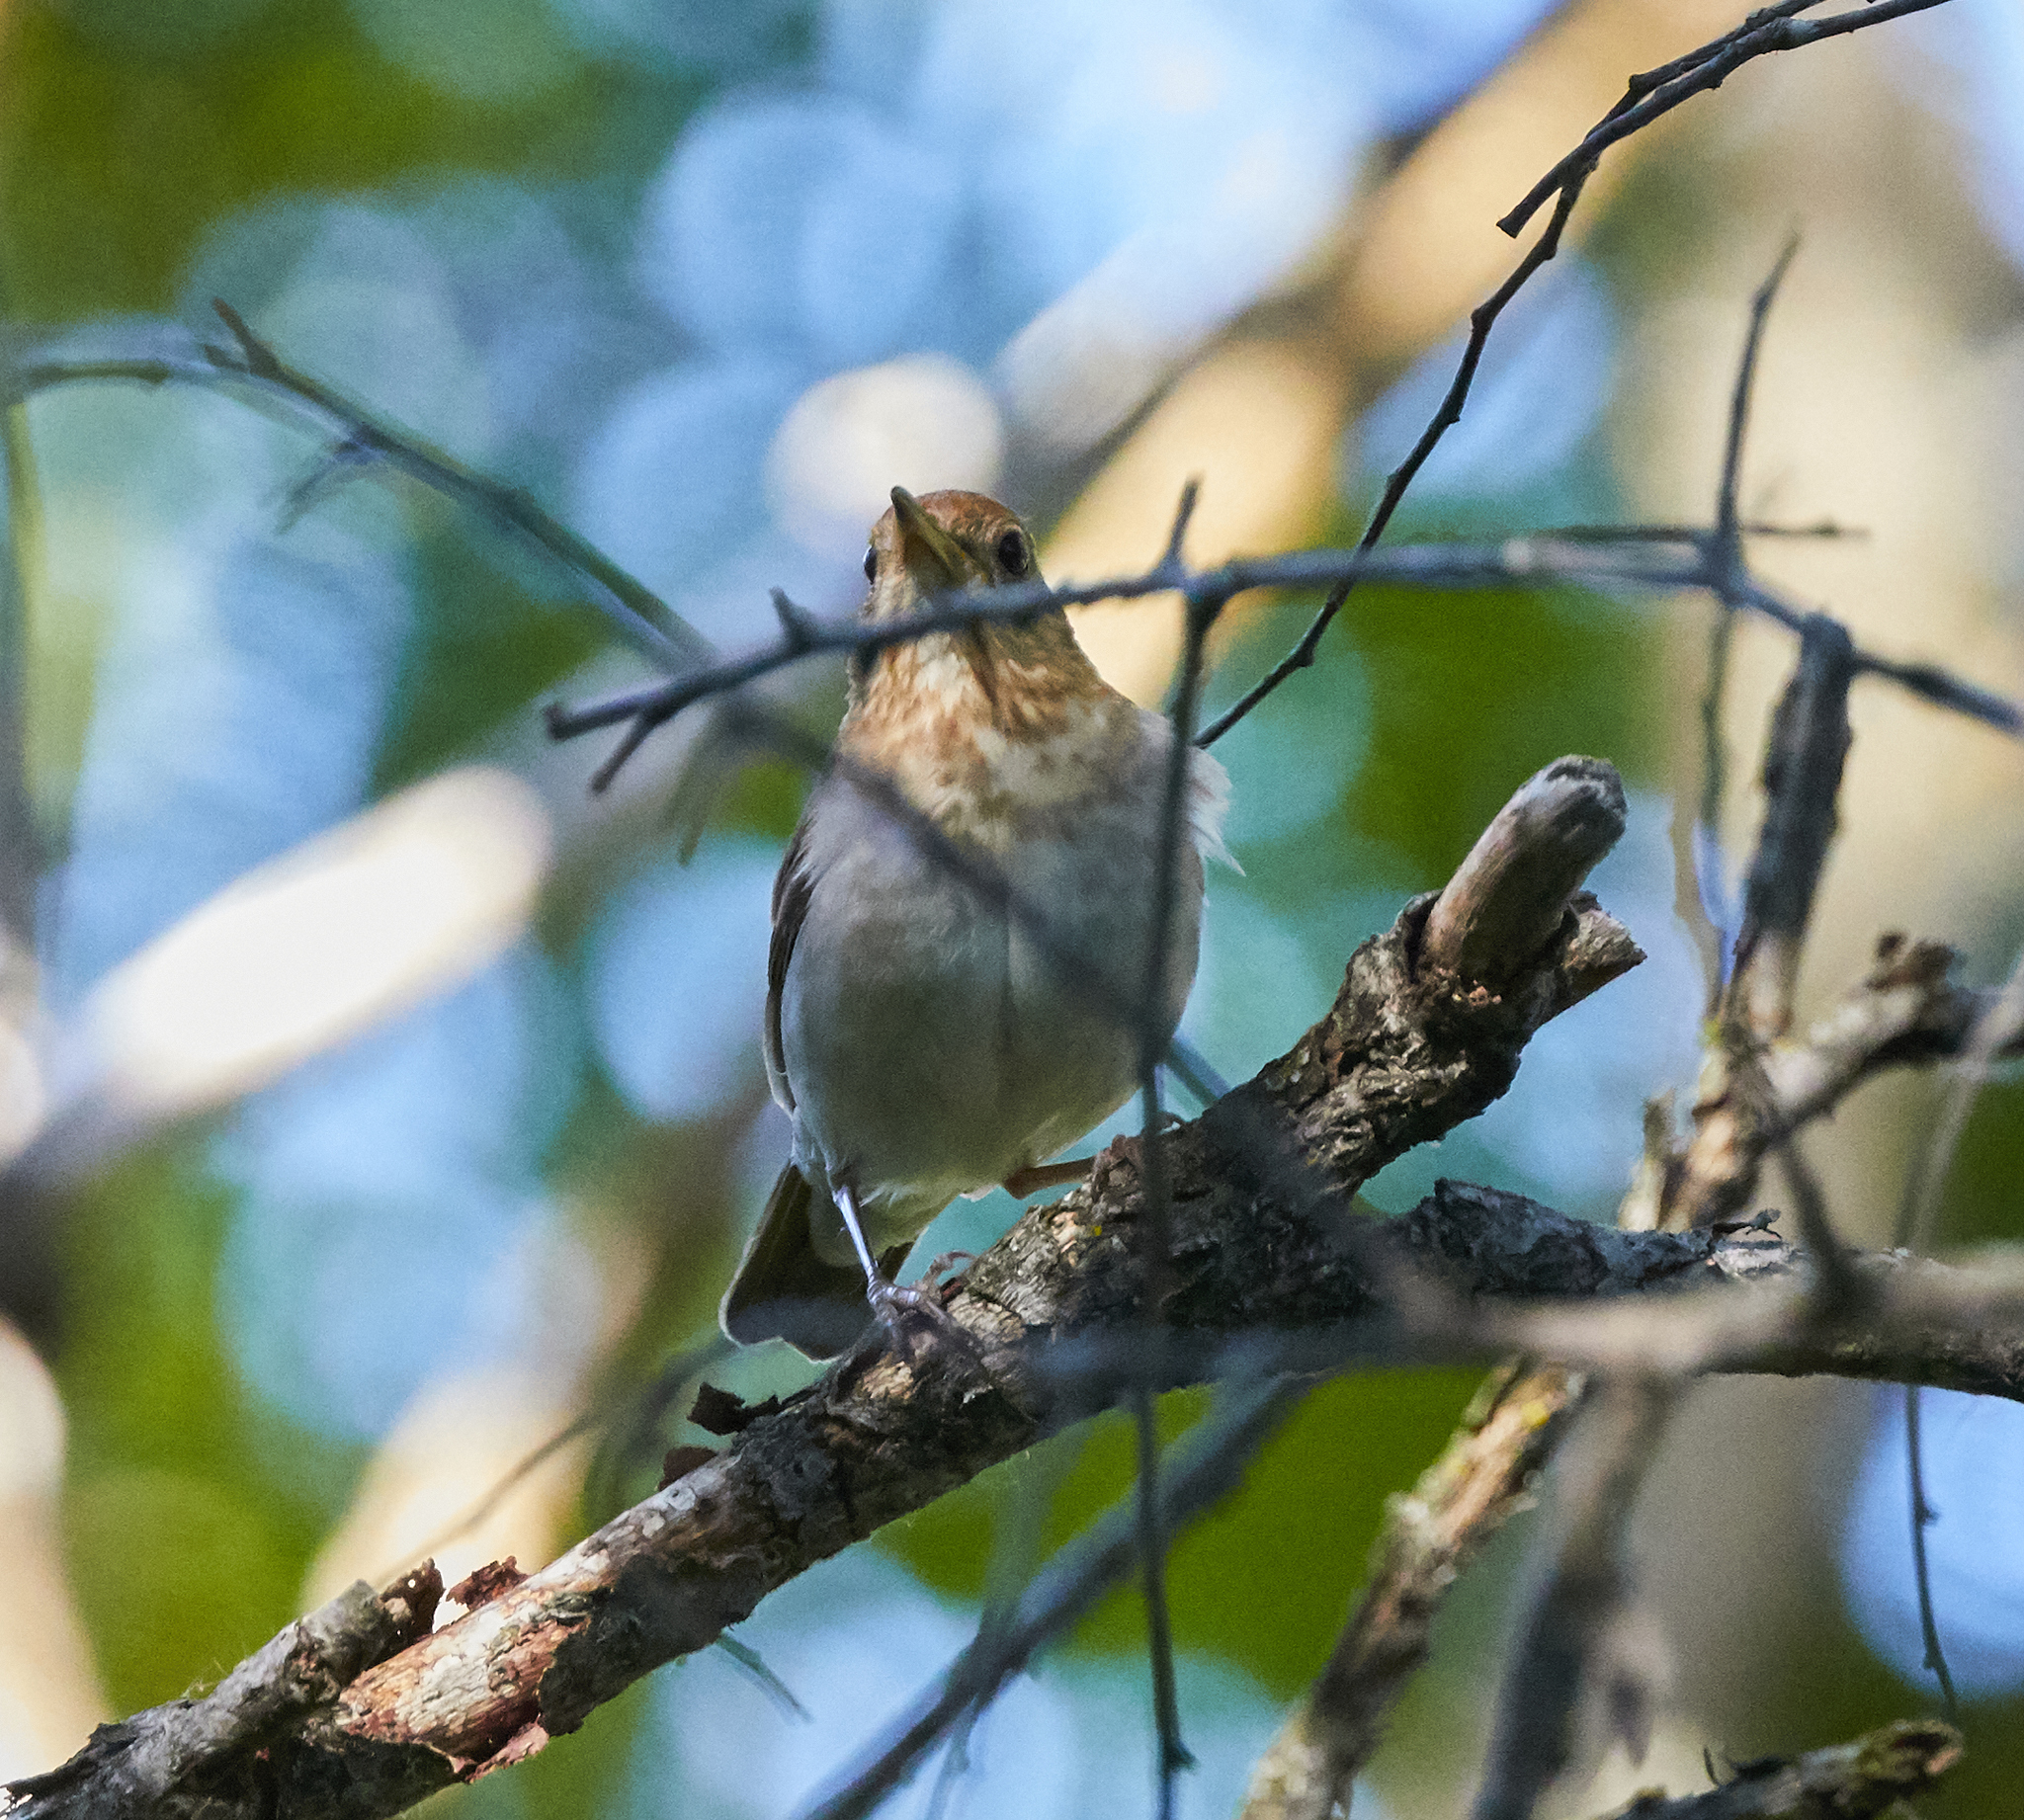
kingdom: Animalia
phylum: Chordata
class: Aves
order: Passeriformes
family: Turdidae
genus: Catharus
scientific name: Catharus fuscescens
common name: Veery
